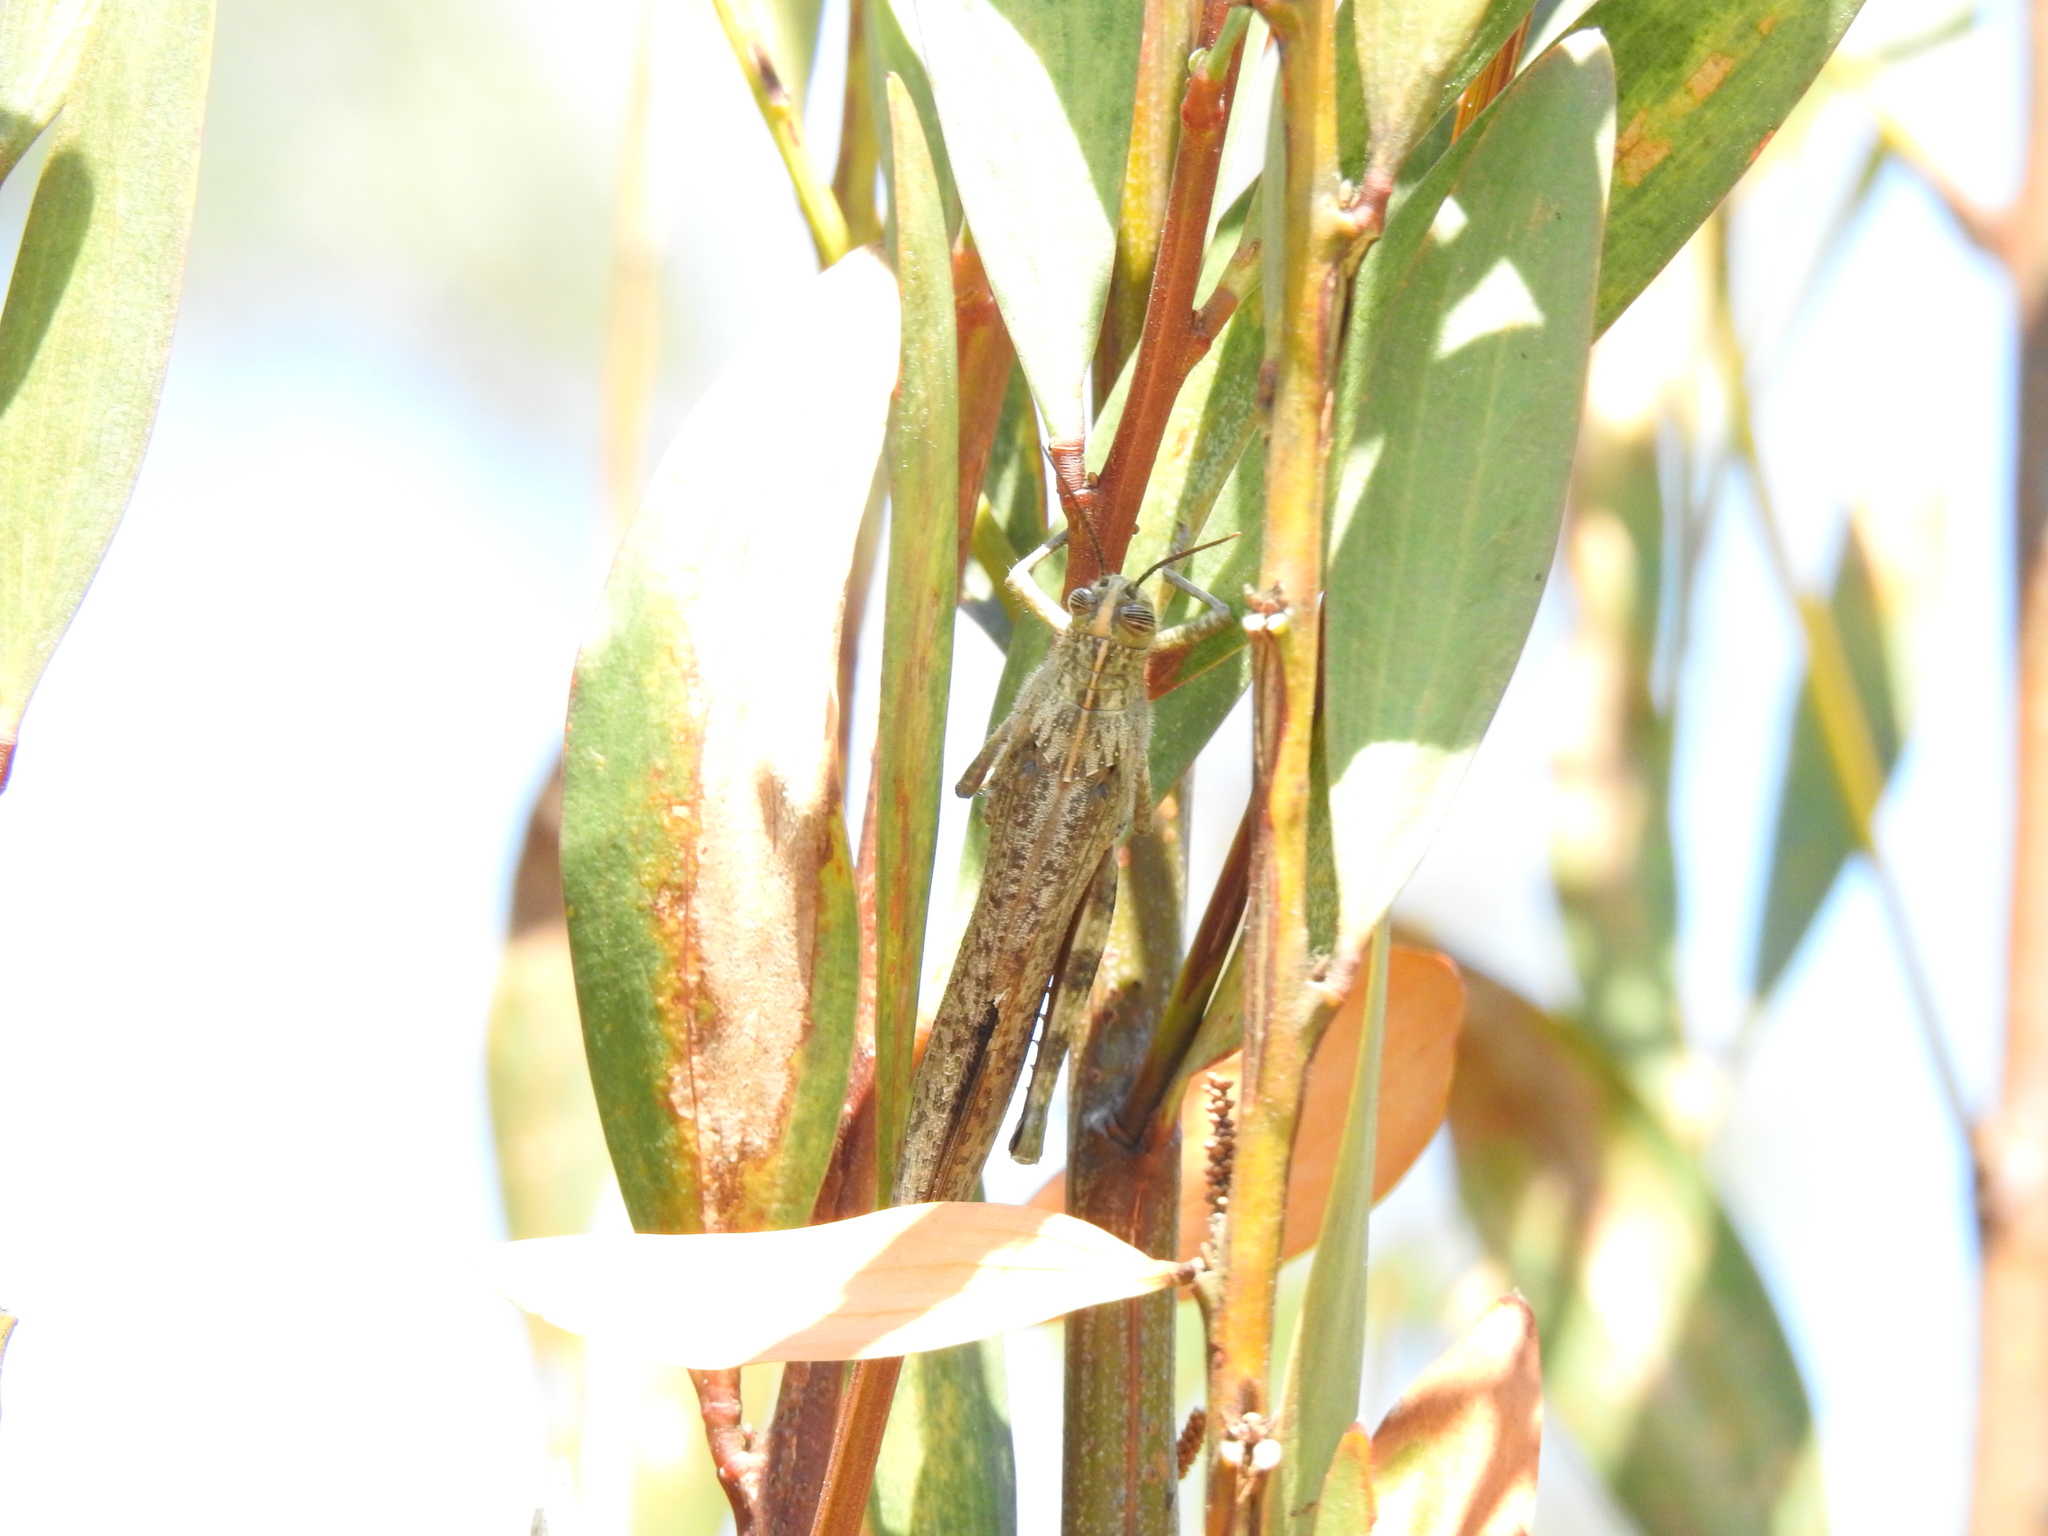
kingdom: Animalia
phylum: Arthropoda
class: Insecta
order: Orthoptera
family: Acrididae
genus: Anacridium
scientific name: Anacridium aegyptium
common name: Egyptian grasshopper
